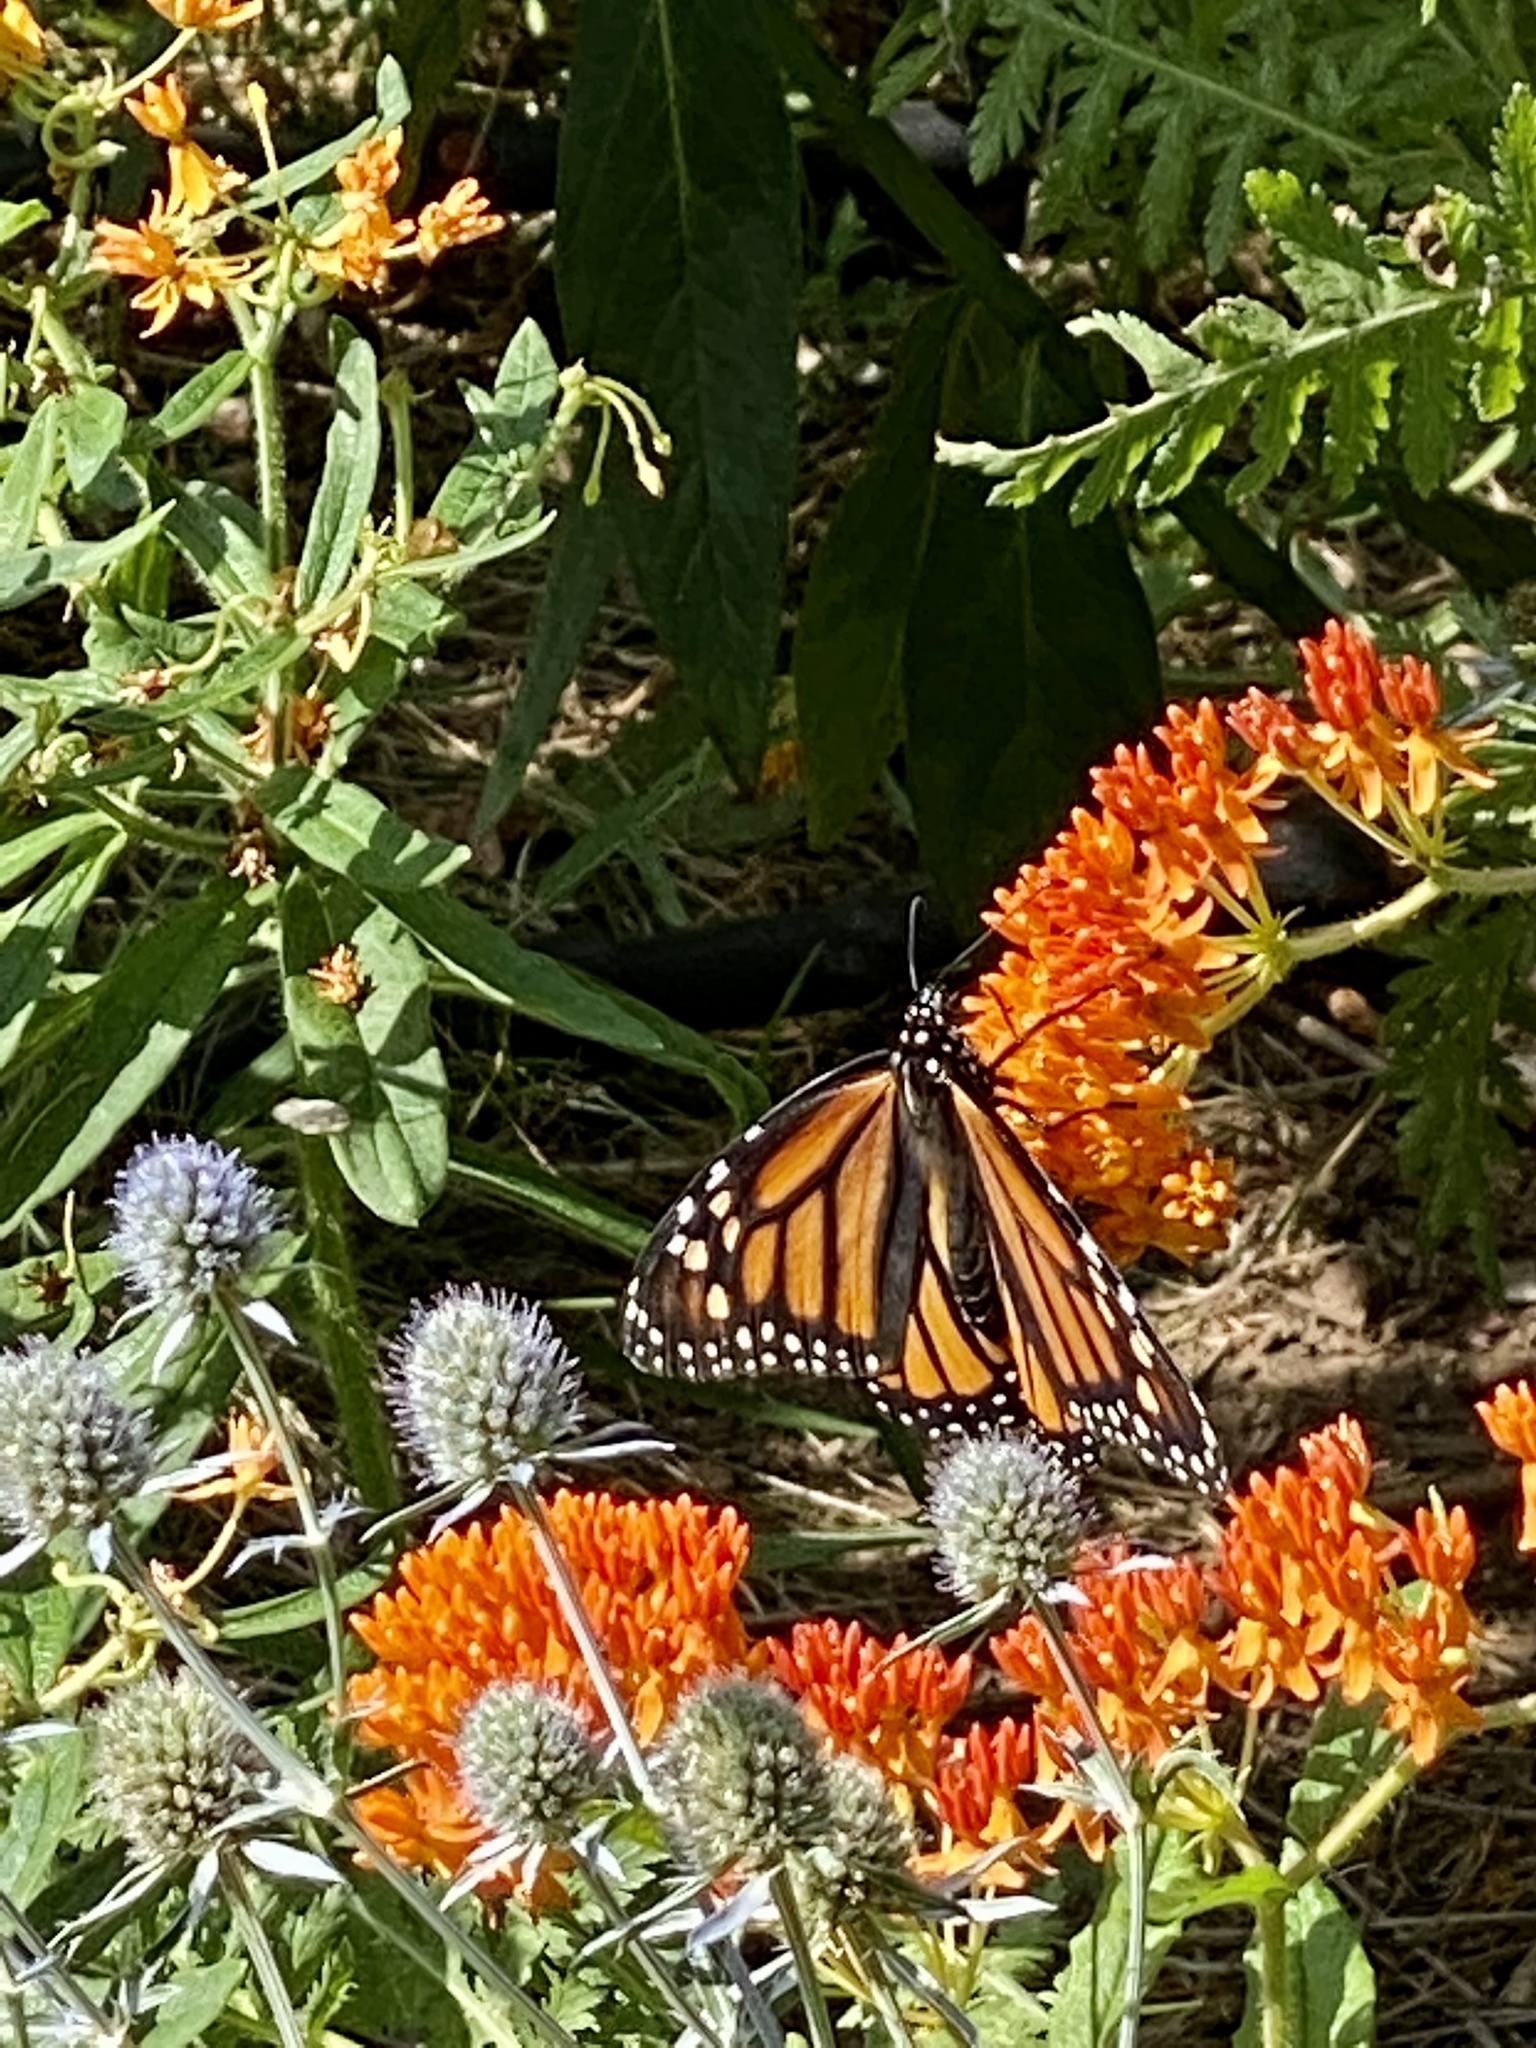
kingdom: Animalia
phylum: Arthropoda
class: Insecta
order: Lepidoptera
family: Nymphalidae
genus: Danaus
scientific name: Danaus plexippus
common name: Monarch
